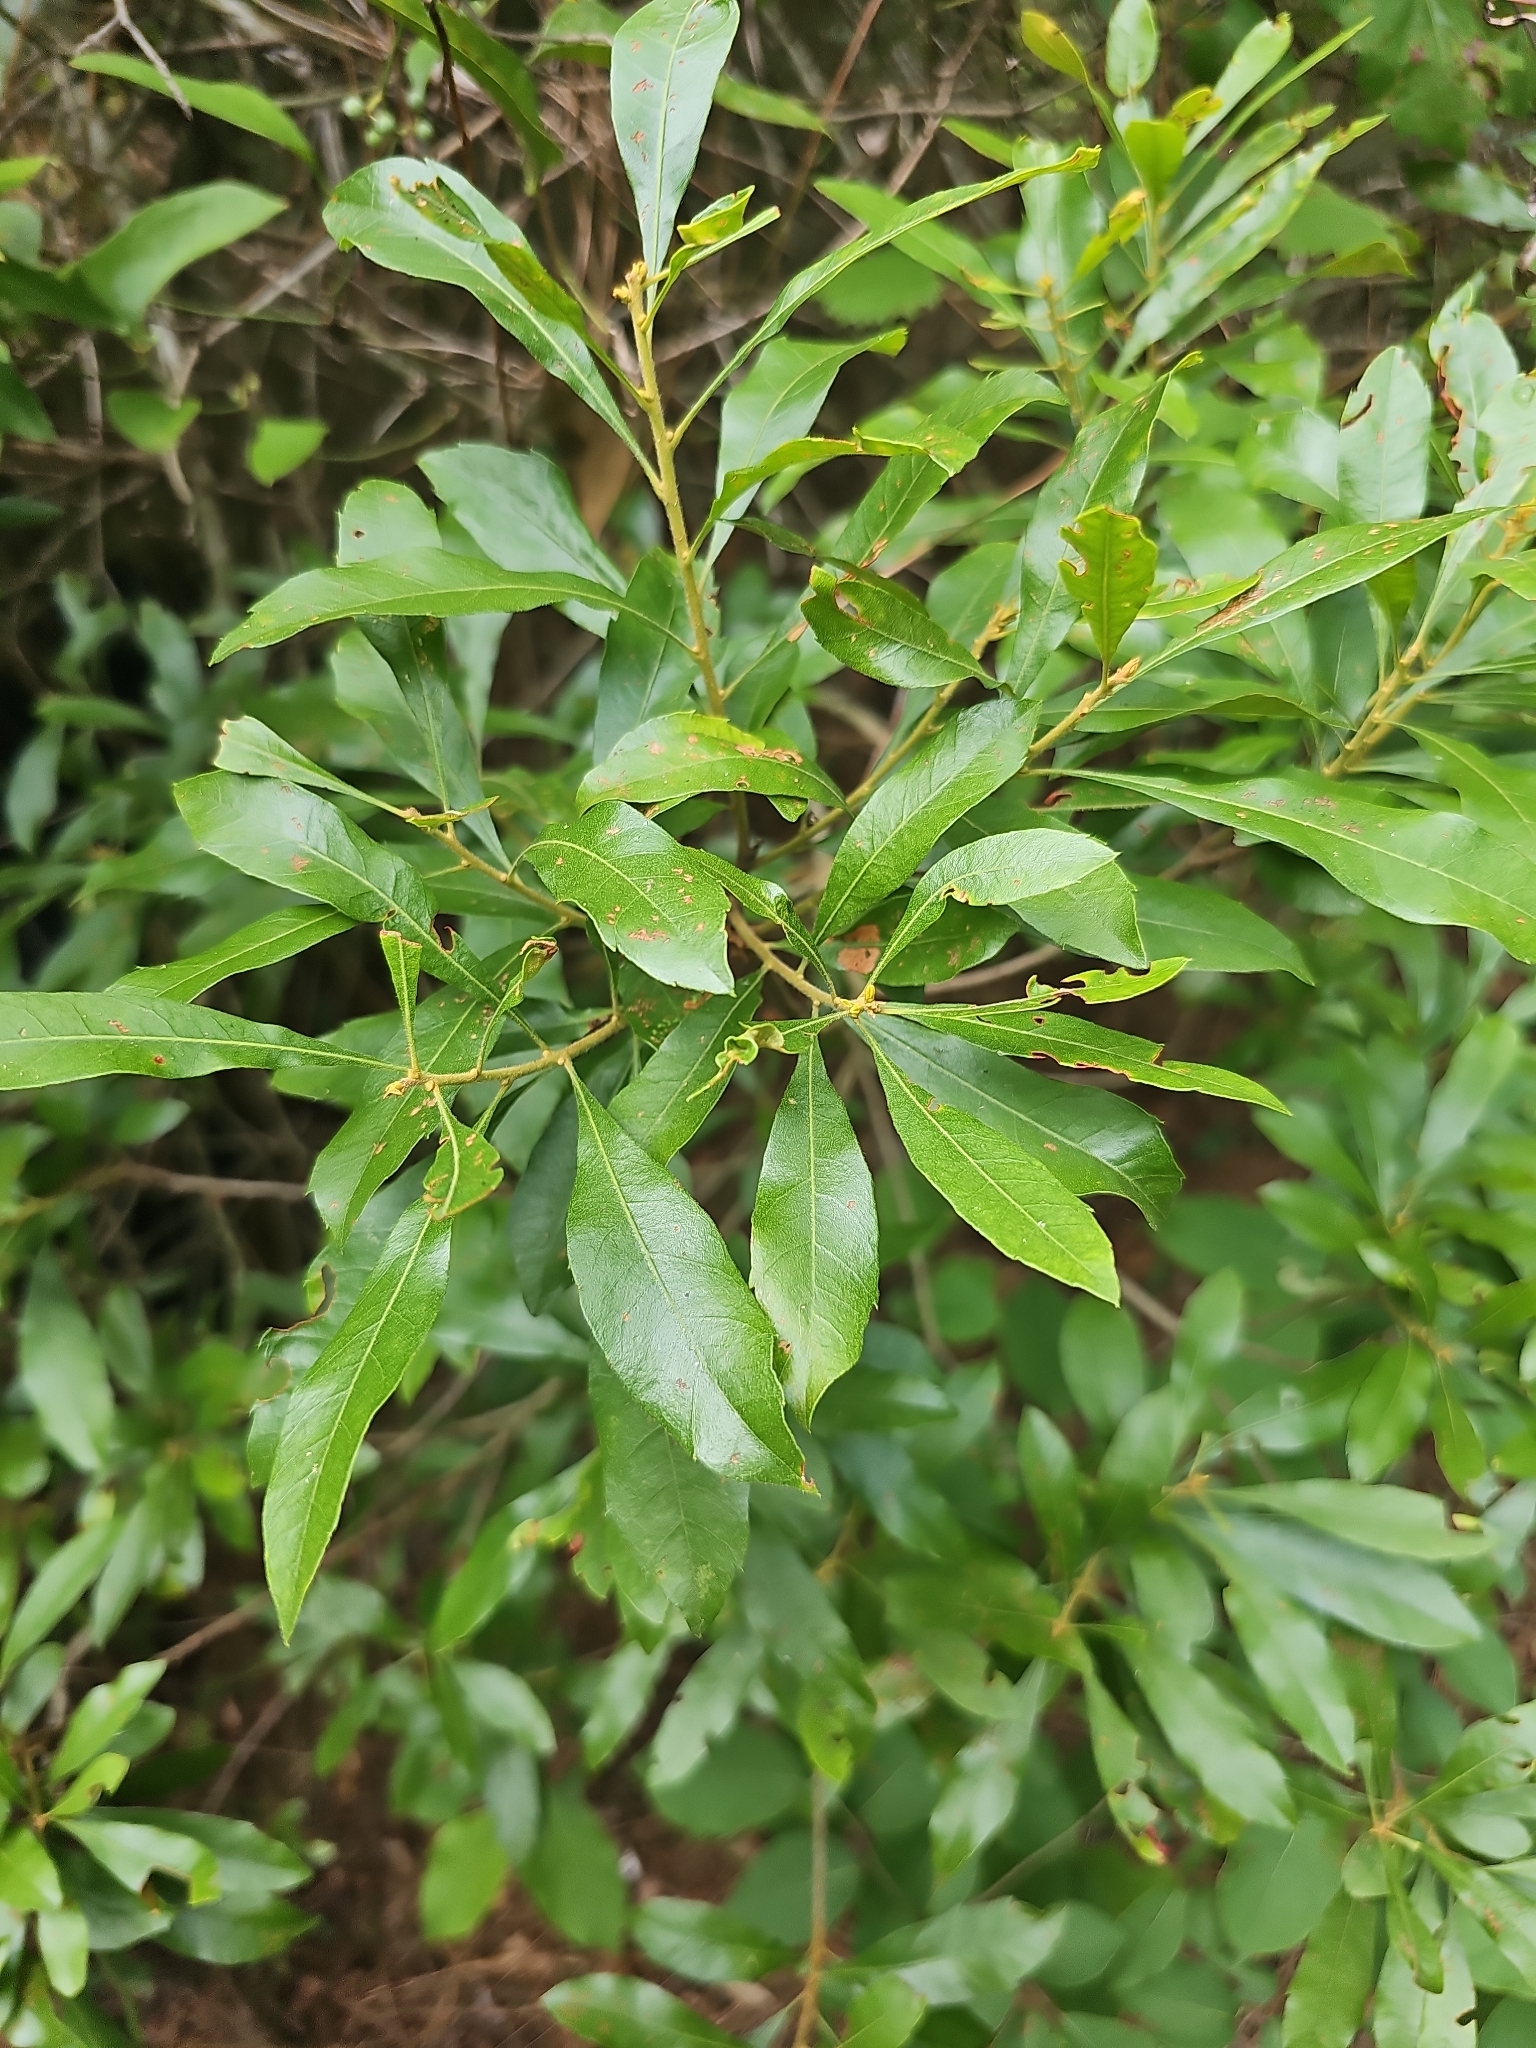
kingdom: Plantae
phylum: Tracheophyta
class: Magnoliopsida
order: Fagales
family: Myricaceae
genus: Morella
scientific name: Morella cerifera
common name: Wax myrtle
